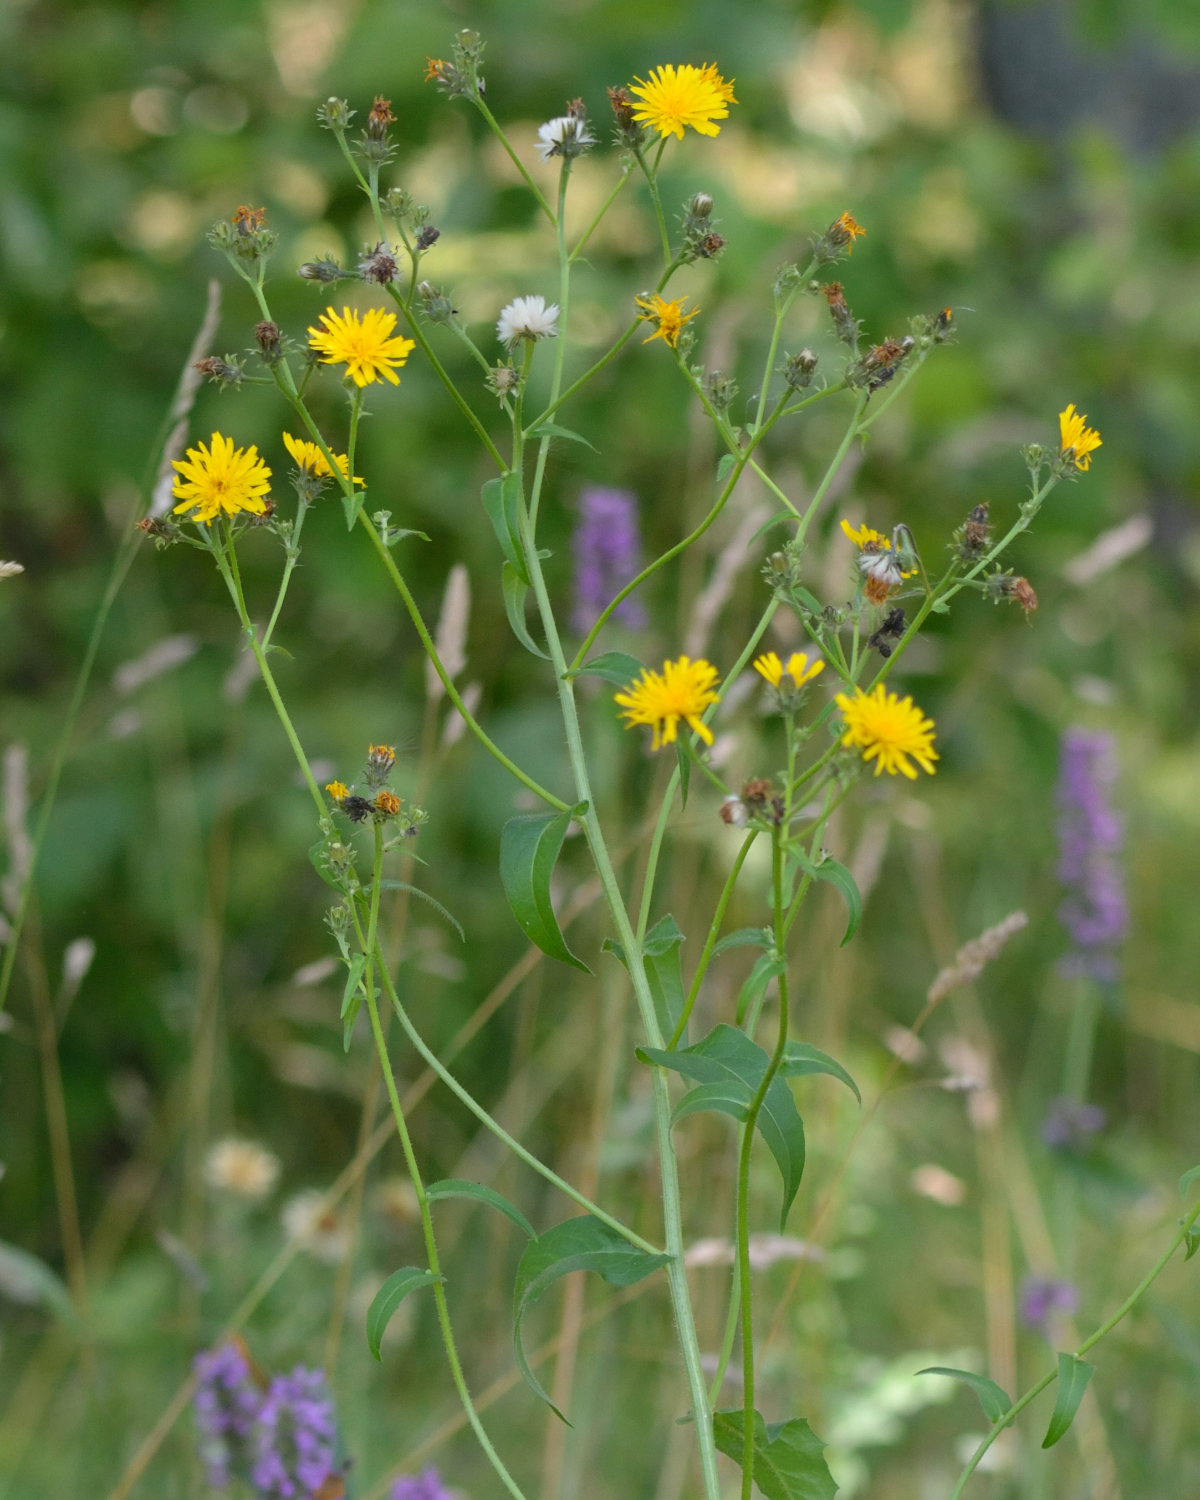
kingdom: Plantae
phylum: Tracheophyta
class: Magnoliopsida
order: Asterales
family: Asteraceae
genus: Picris
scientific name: Picris hieracioides
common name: Hawkweed oxtongue
